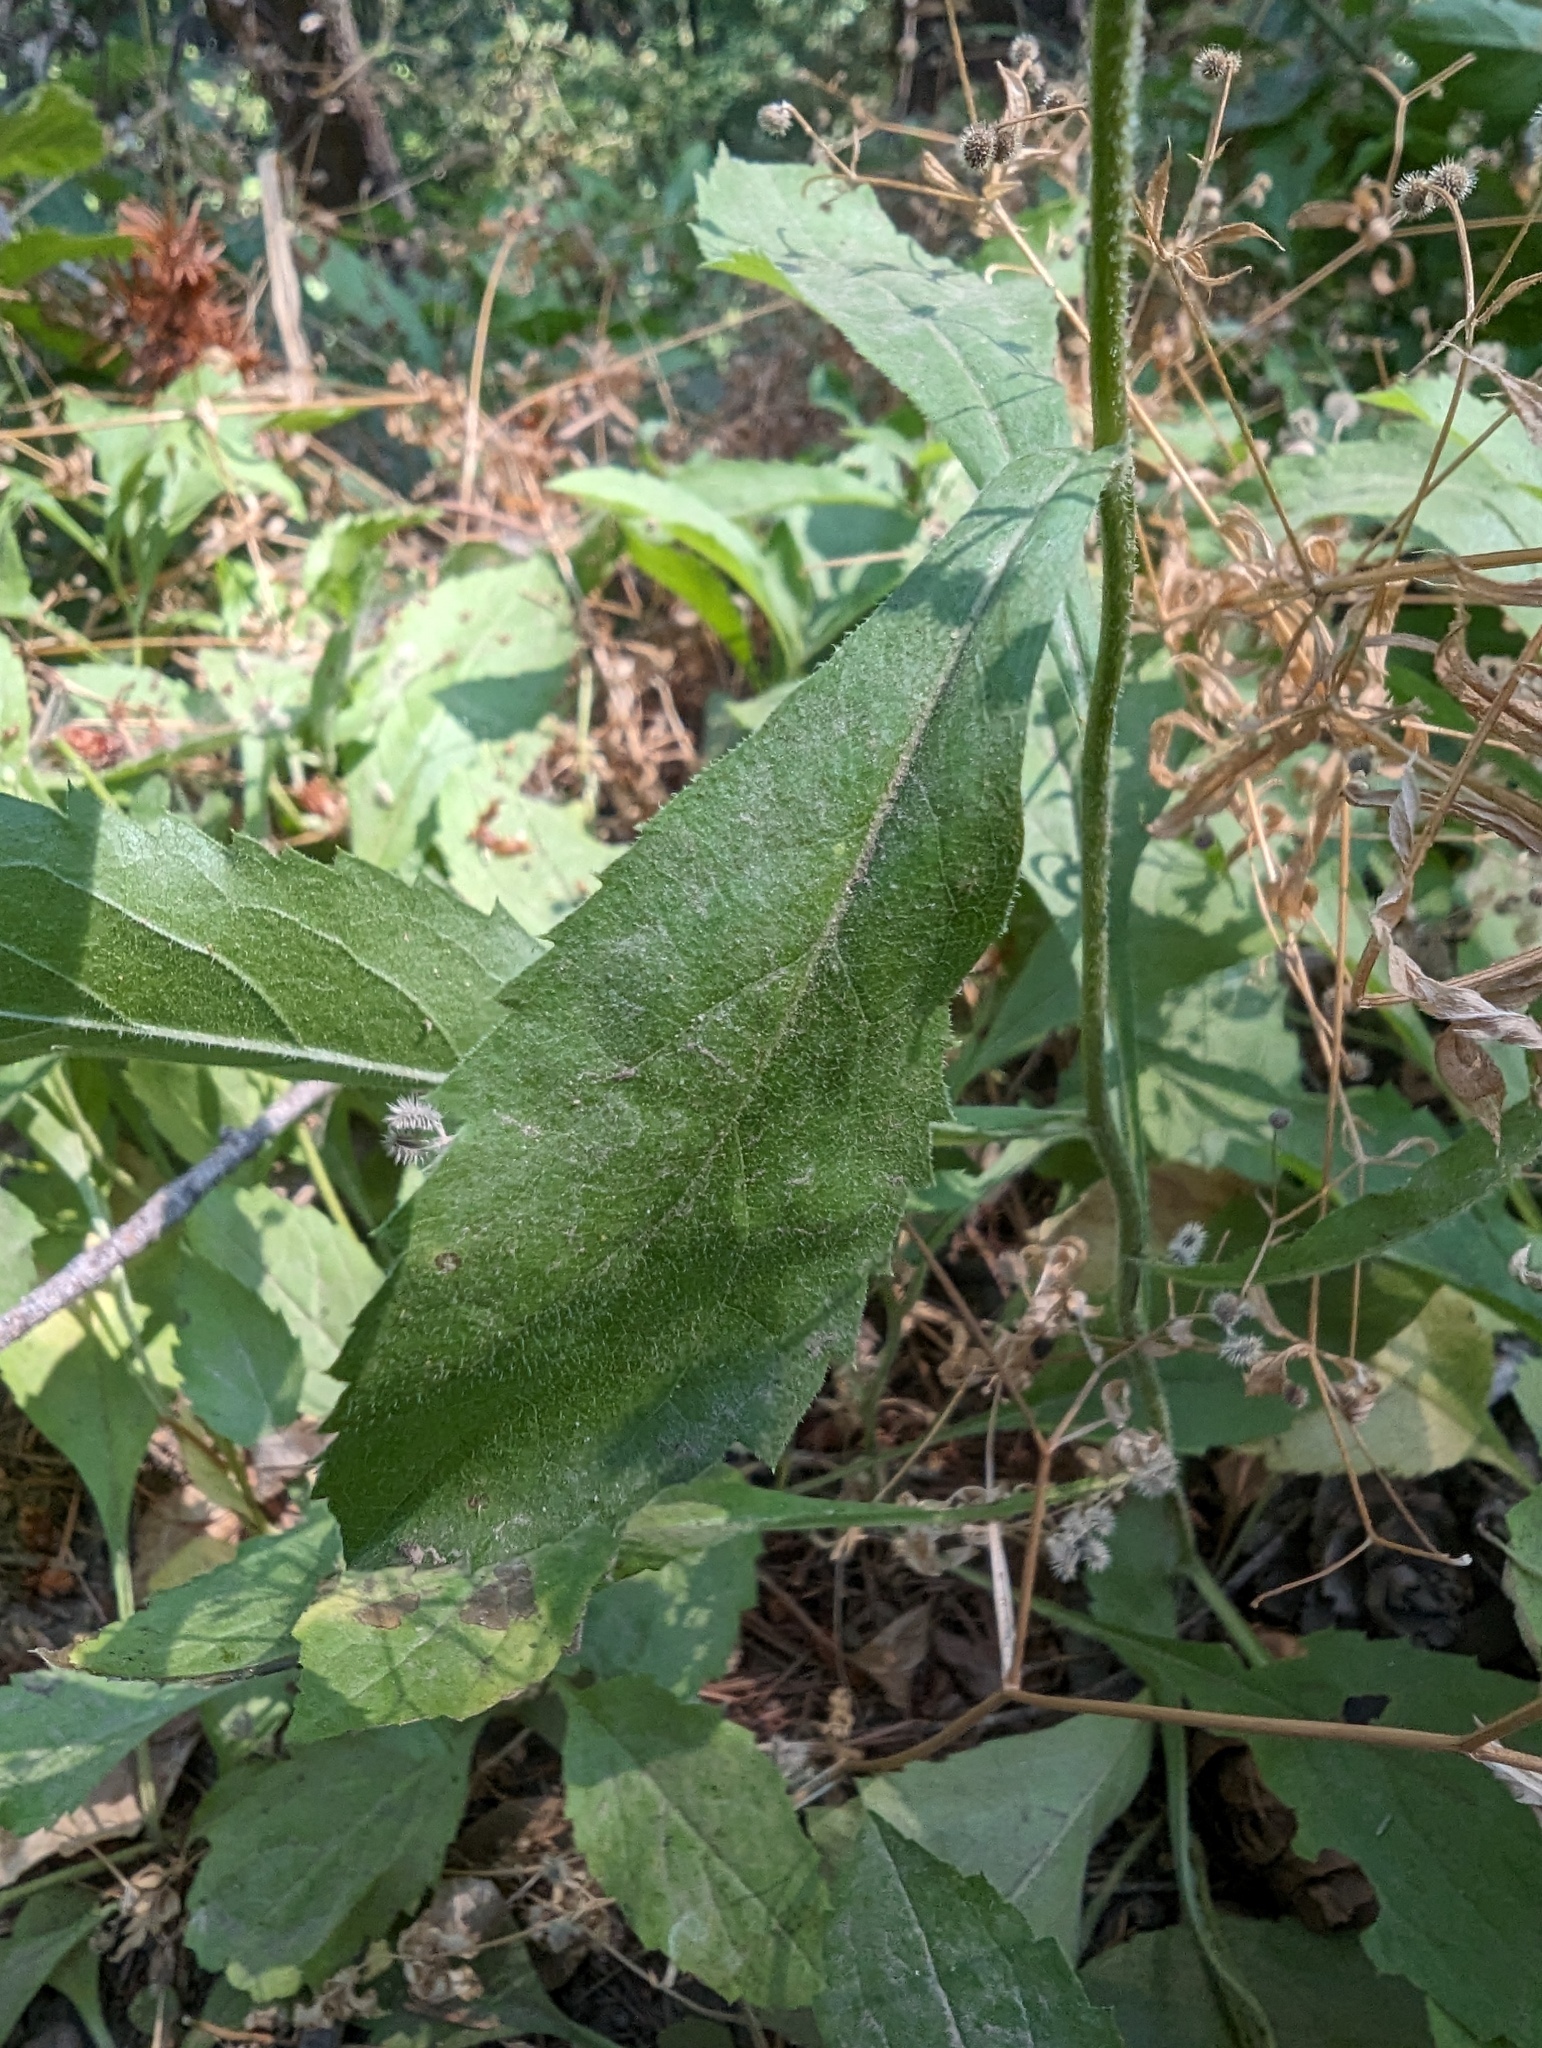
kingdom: Plantae
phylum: Tracheophyta
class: Magnoliopsida
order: Asterales
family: Asteraceae
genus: Eurybia
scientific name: Eurybia radulina
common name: Rough-leaved aster
